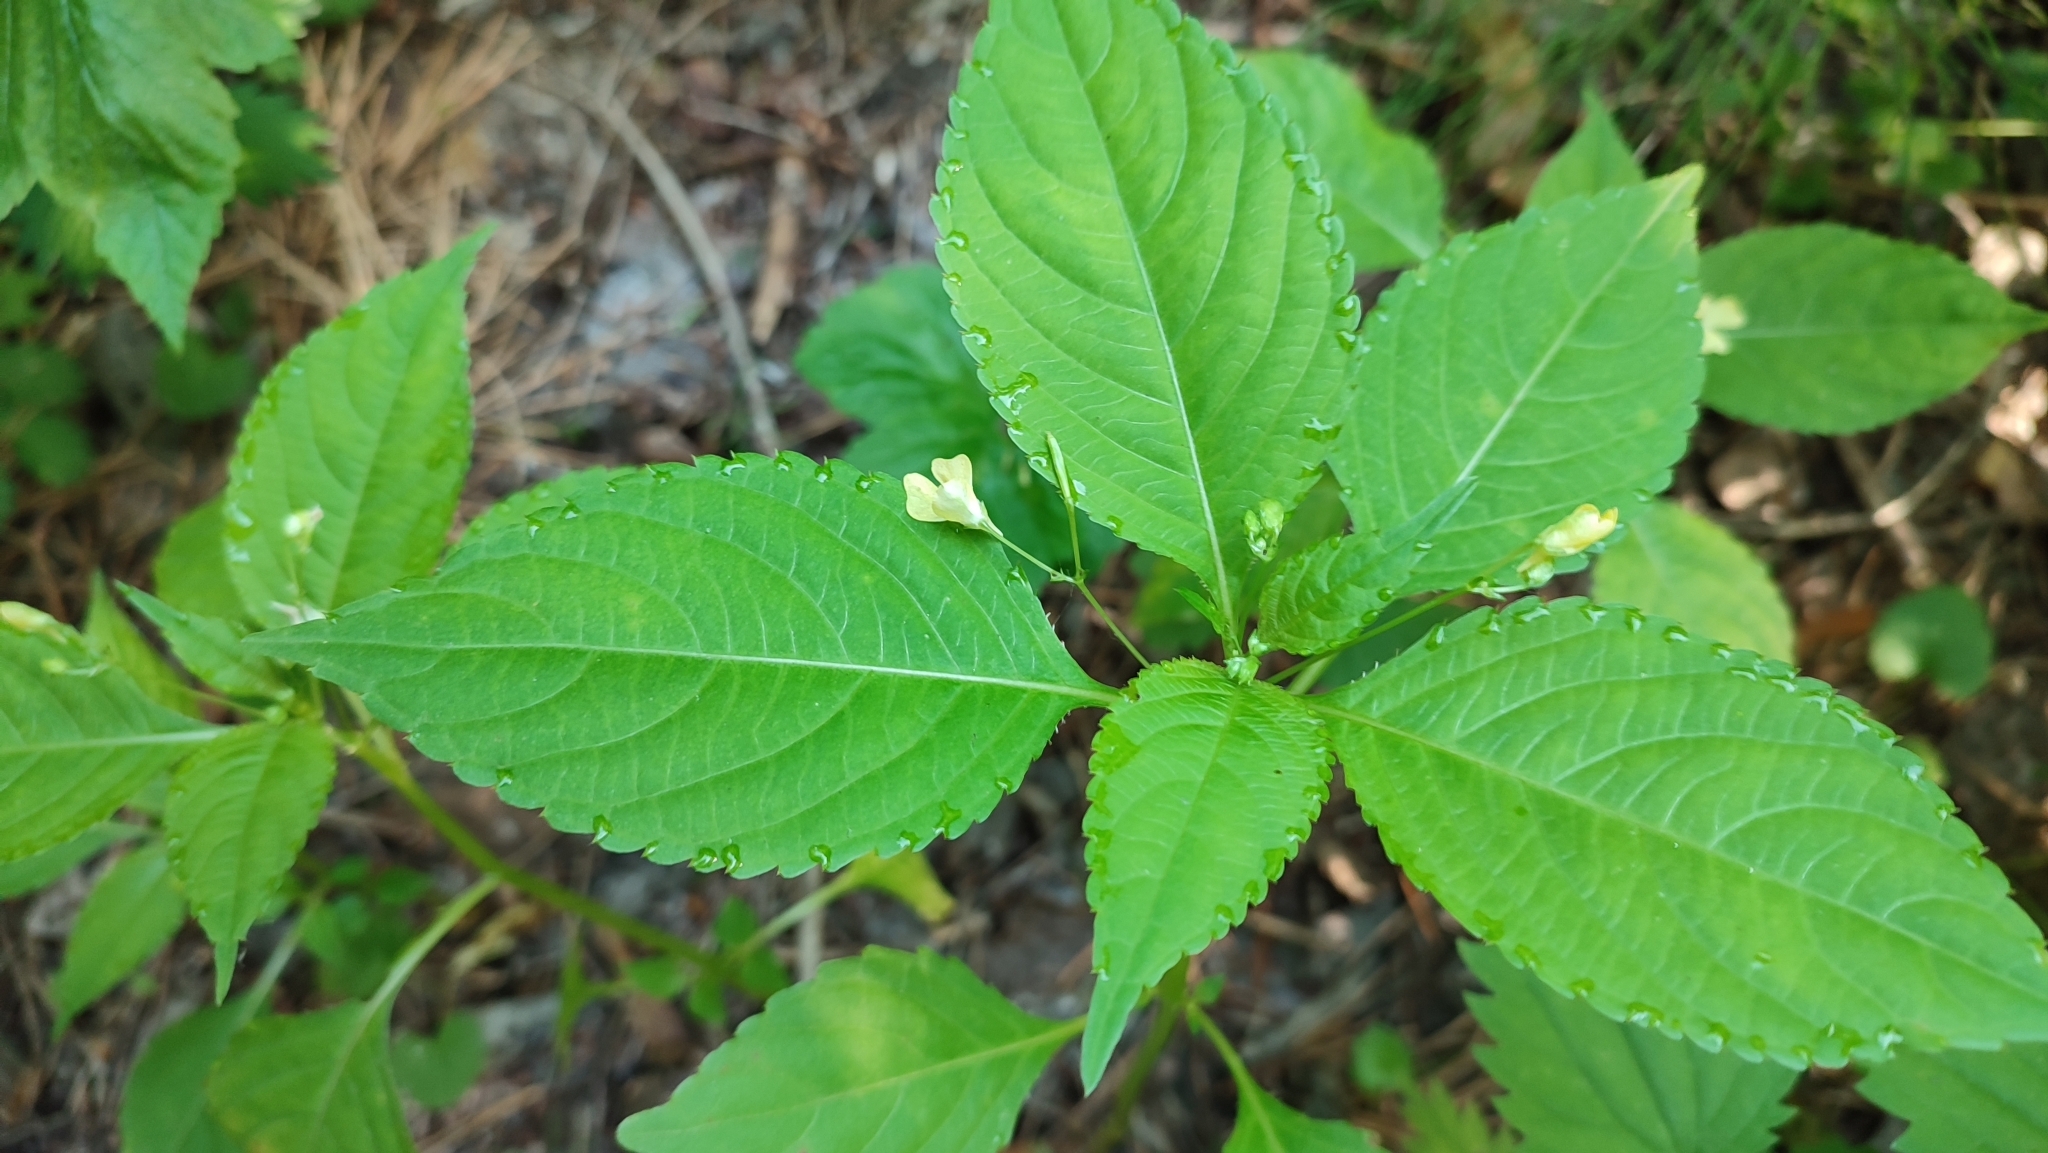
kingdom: Plantae
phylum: Tracheophyta
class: Magnoliopsida
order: Ericales
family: Balsaminaceae
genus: Impatiens
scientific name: Impatiens parviflora
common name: Small balsam
